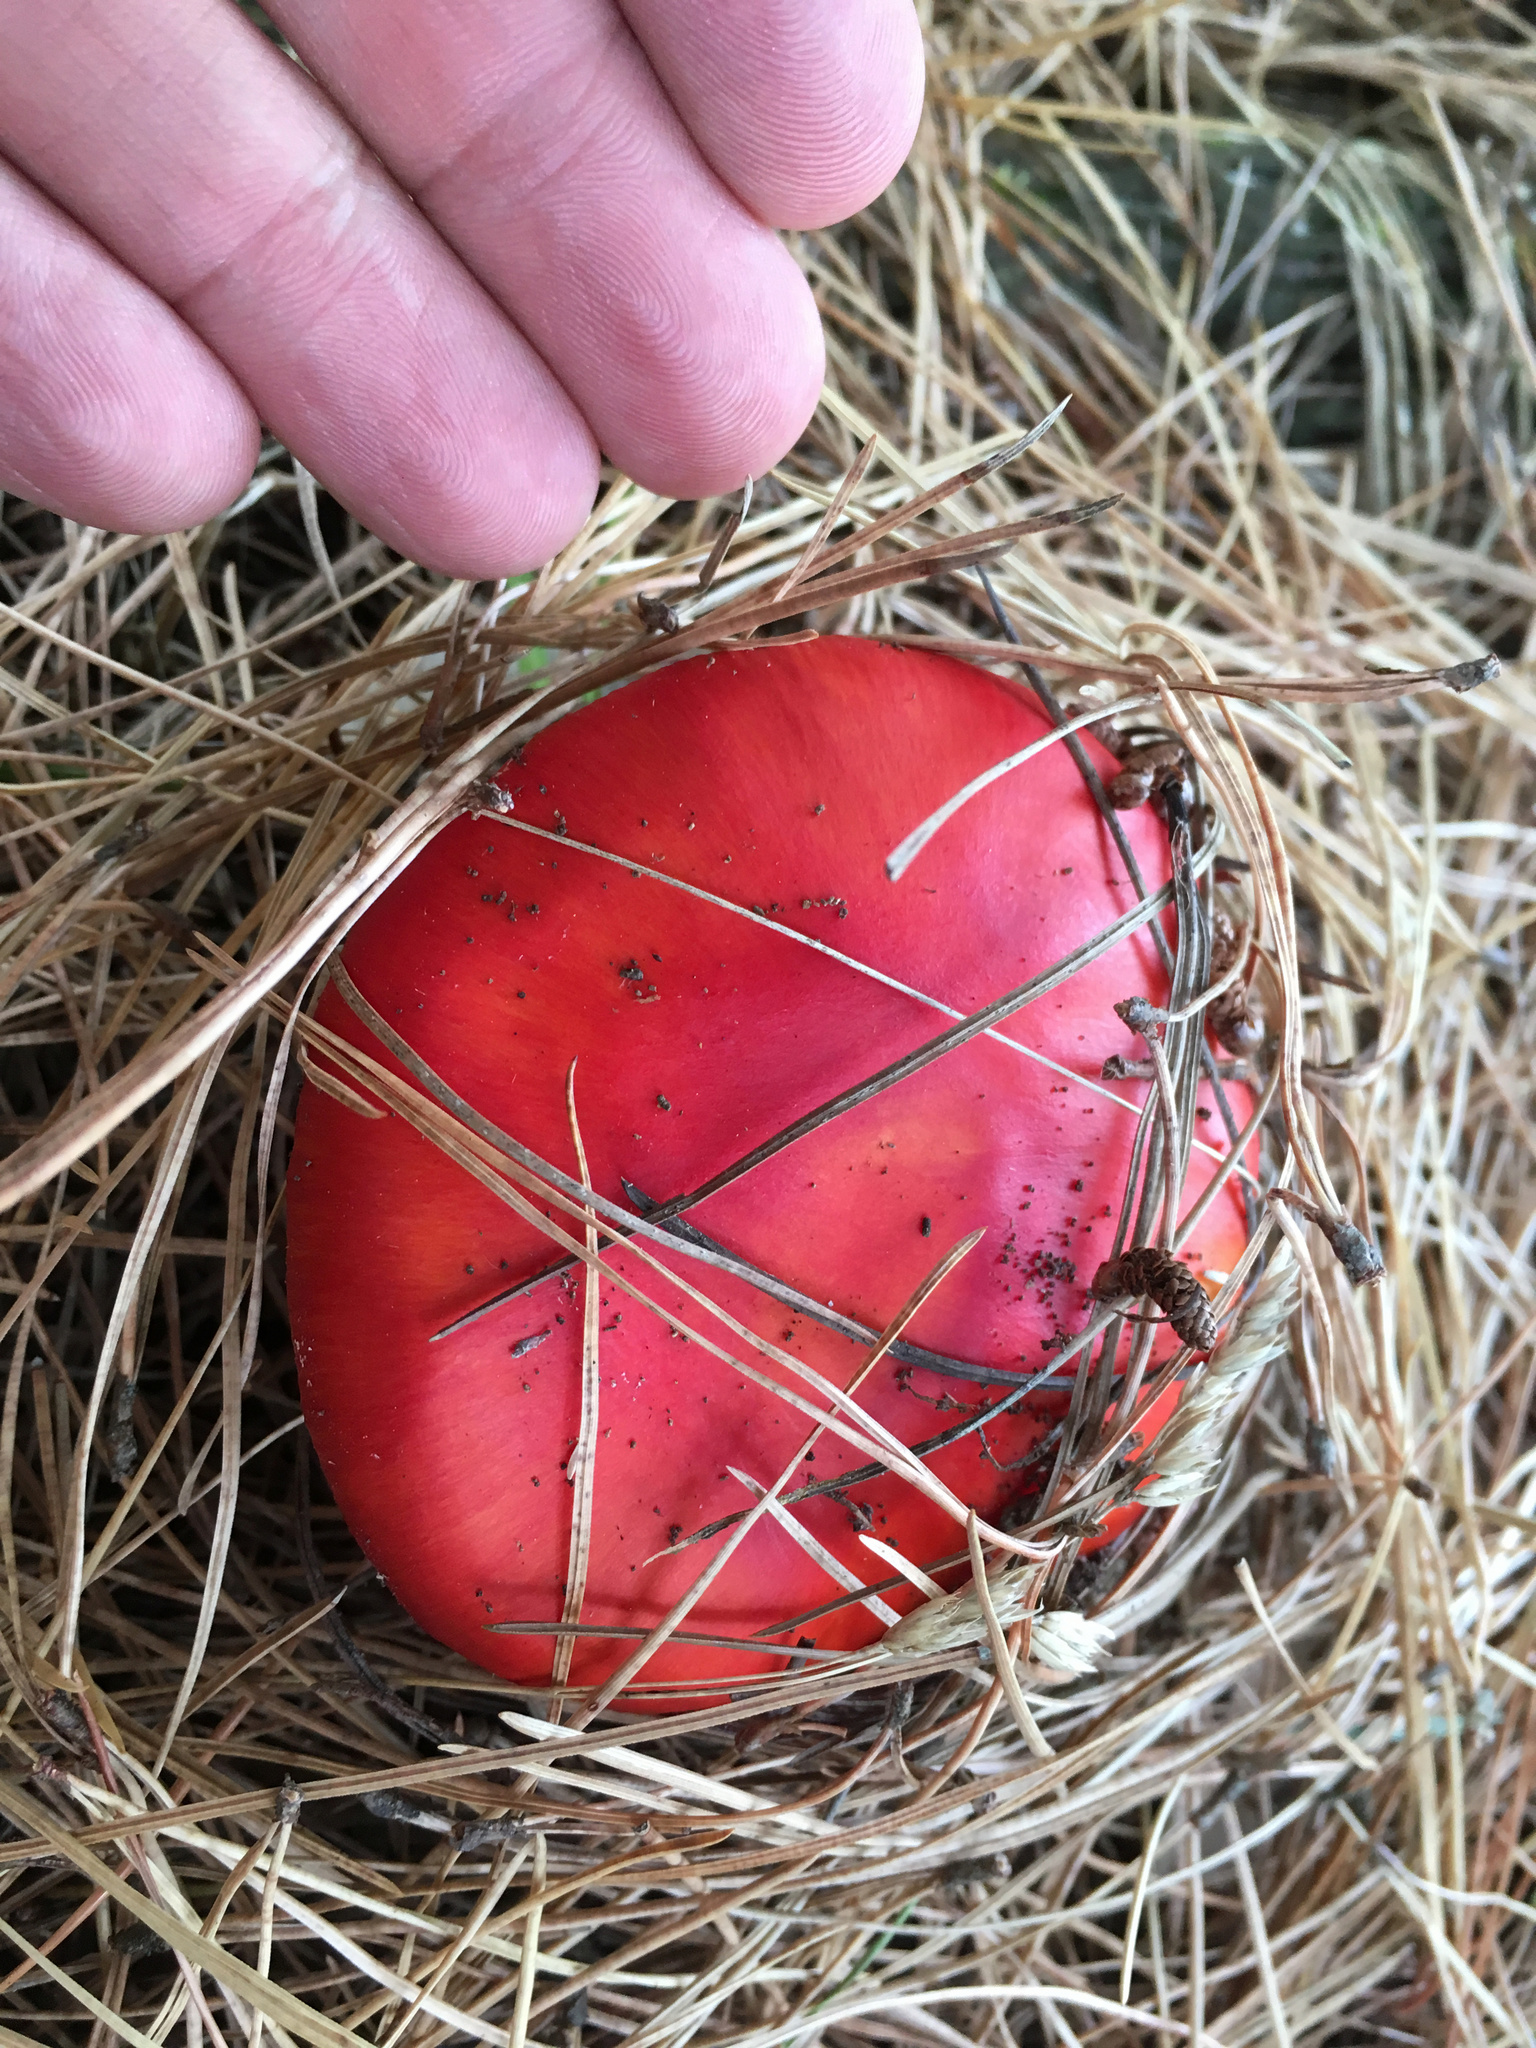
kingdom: Fungi
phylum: Basidiomycota
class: Agaricomycetes
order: Agaricales
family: Amanitaceae
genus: Amanita
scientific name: Amanita muscaria
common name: Fly agaric
